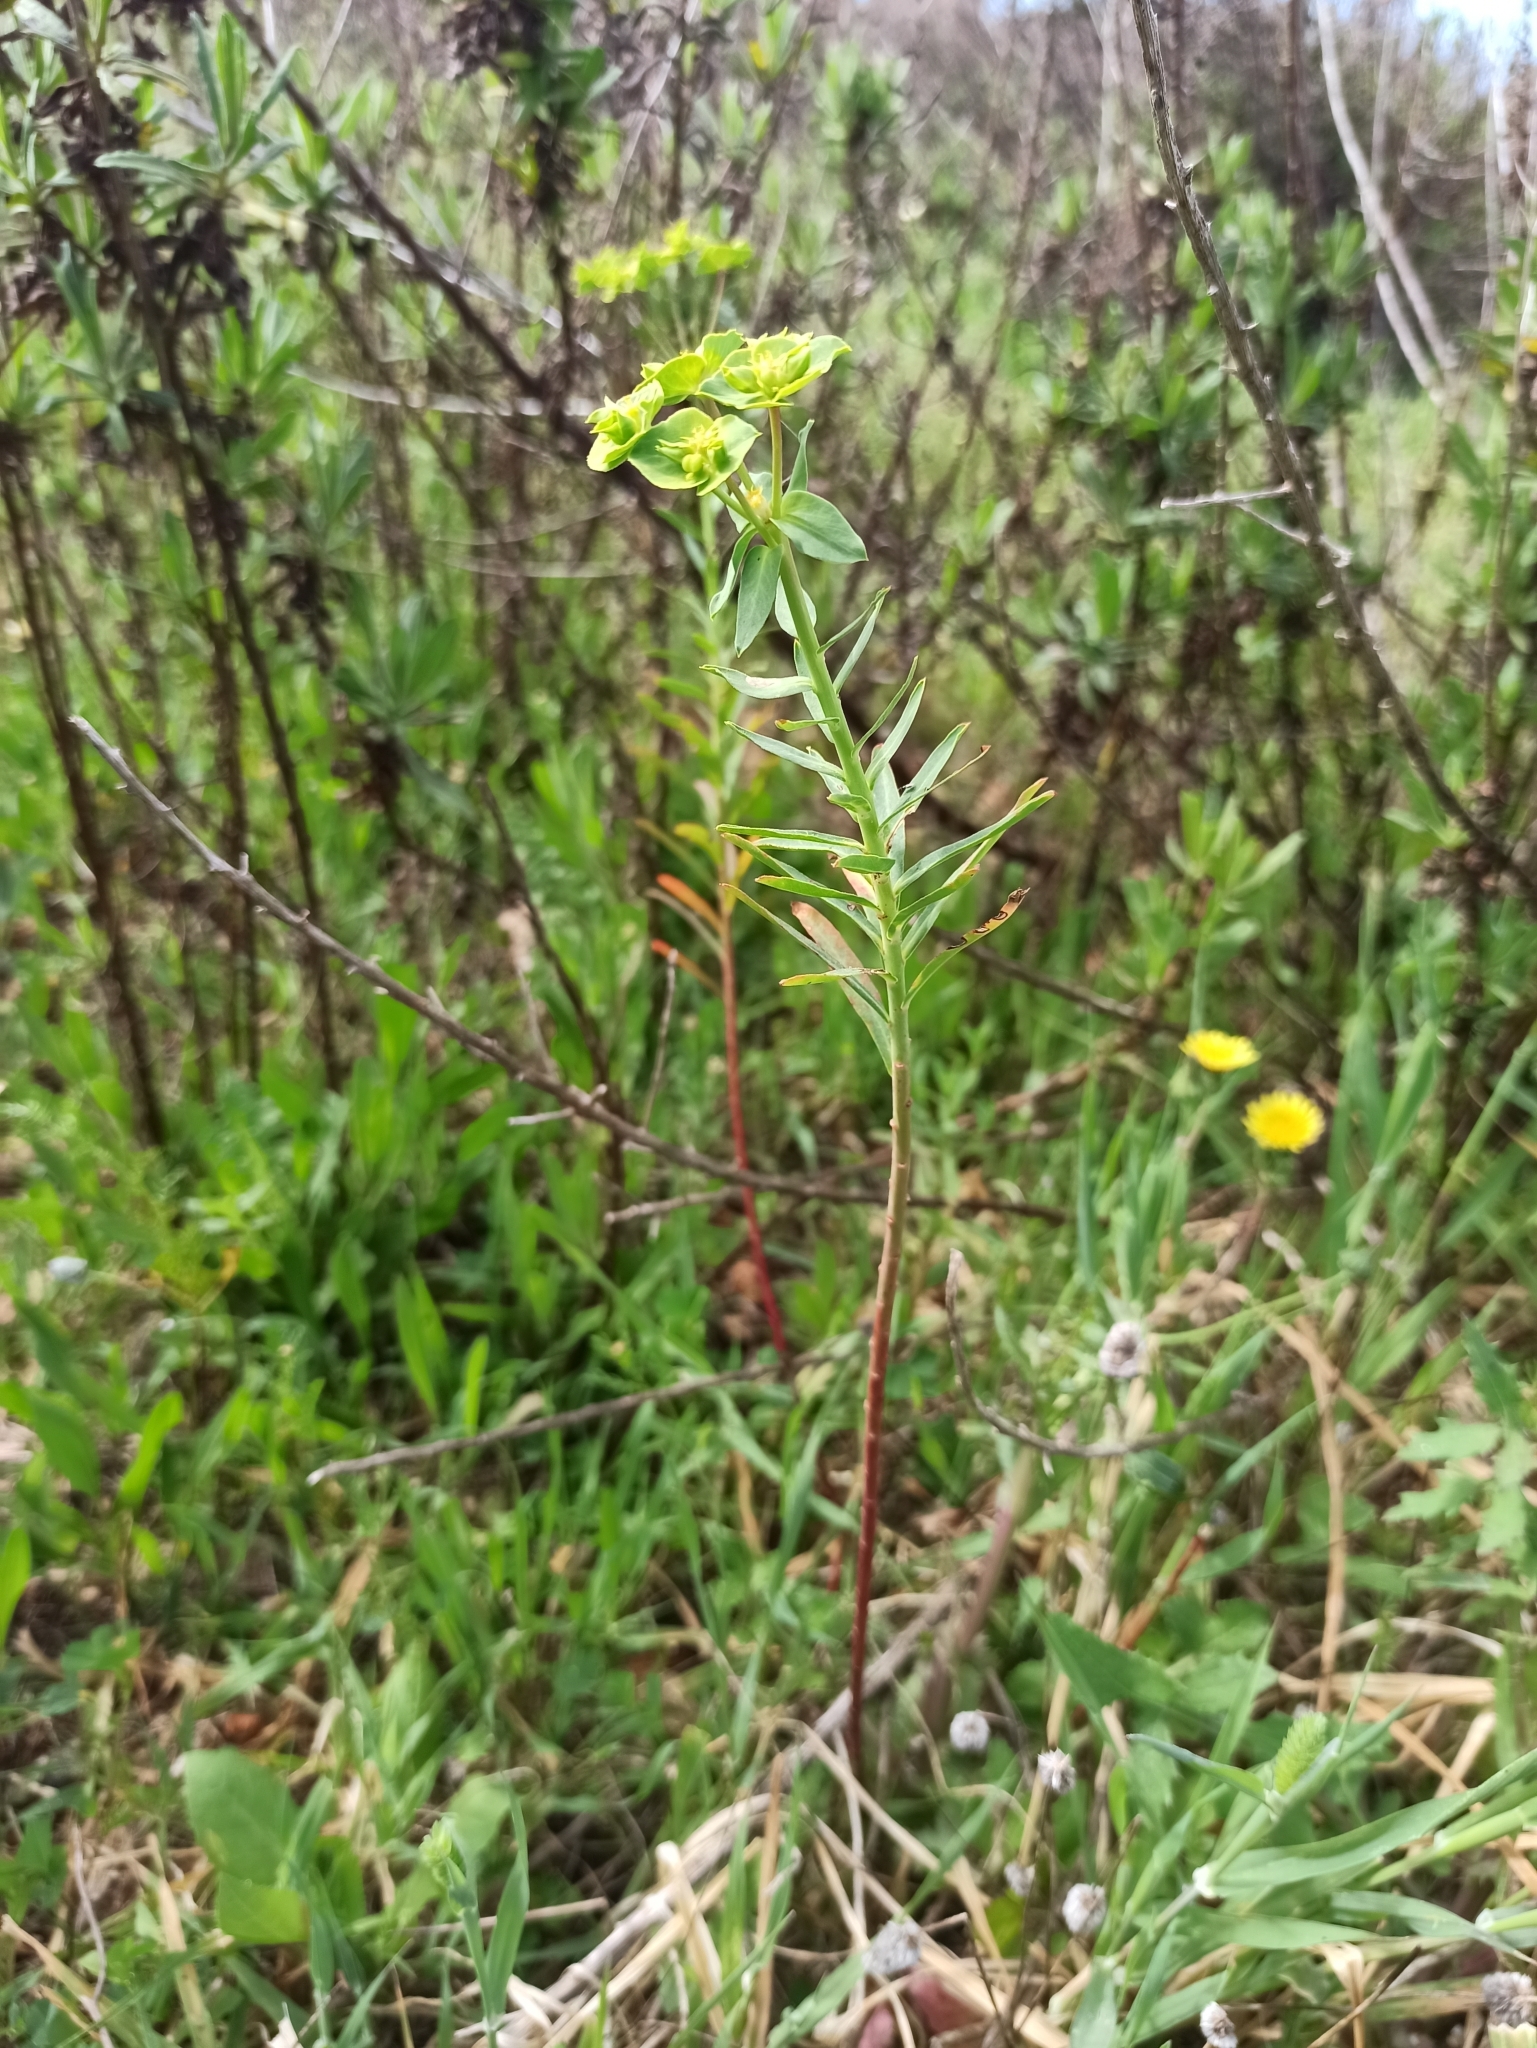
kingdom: Plantae
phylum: Tracheophyta
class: Magnoliopsida
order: Malpighiales
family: Euphorbiaceae
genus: Euphorbia
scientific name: Euphorbia terracina
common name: Geraldton carnation weed
